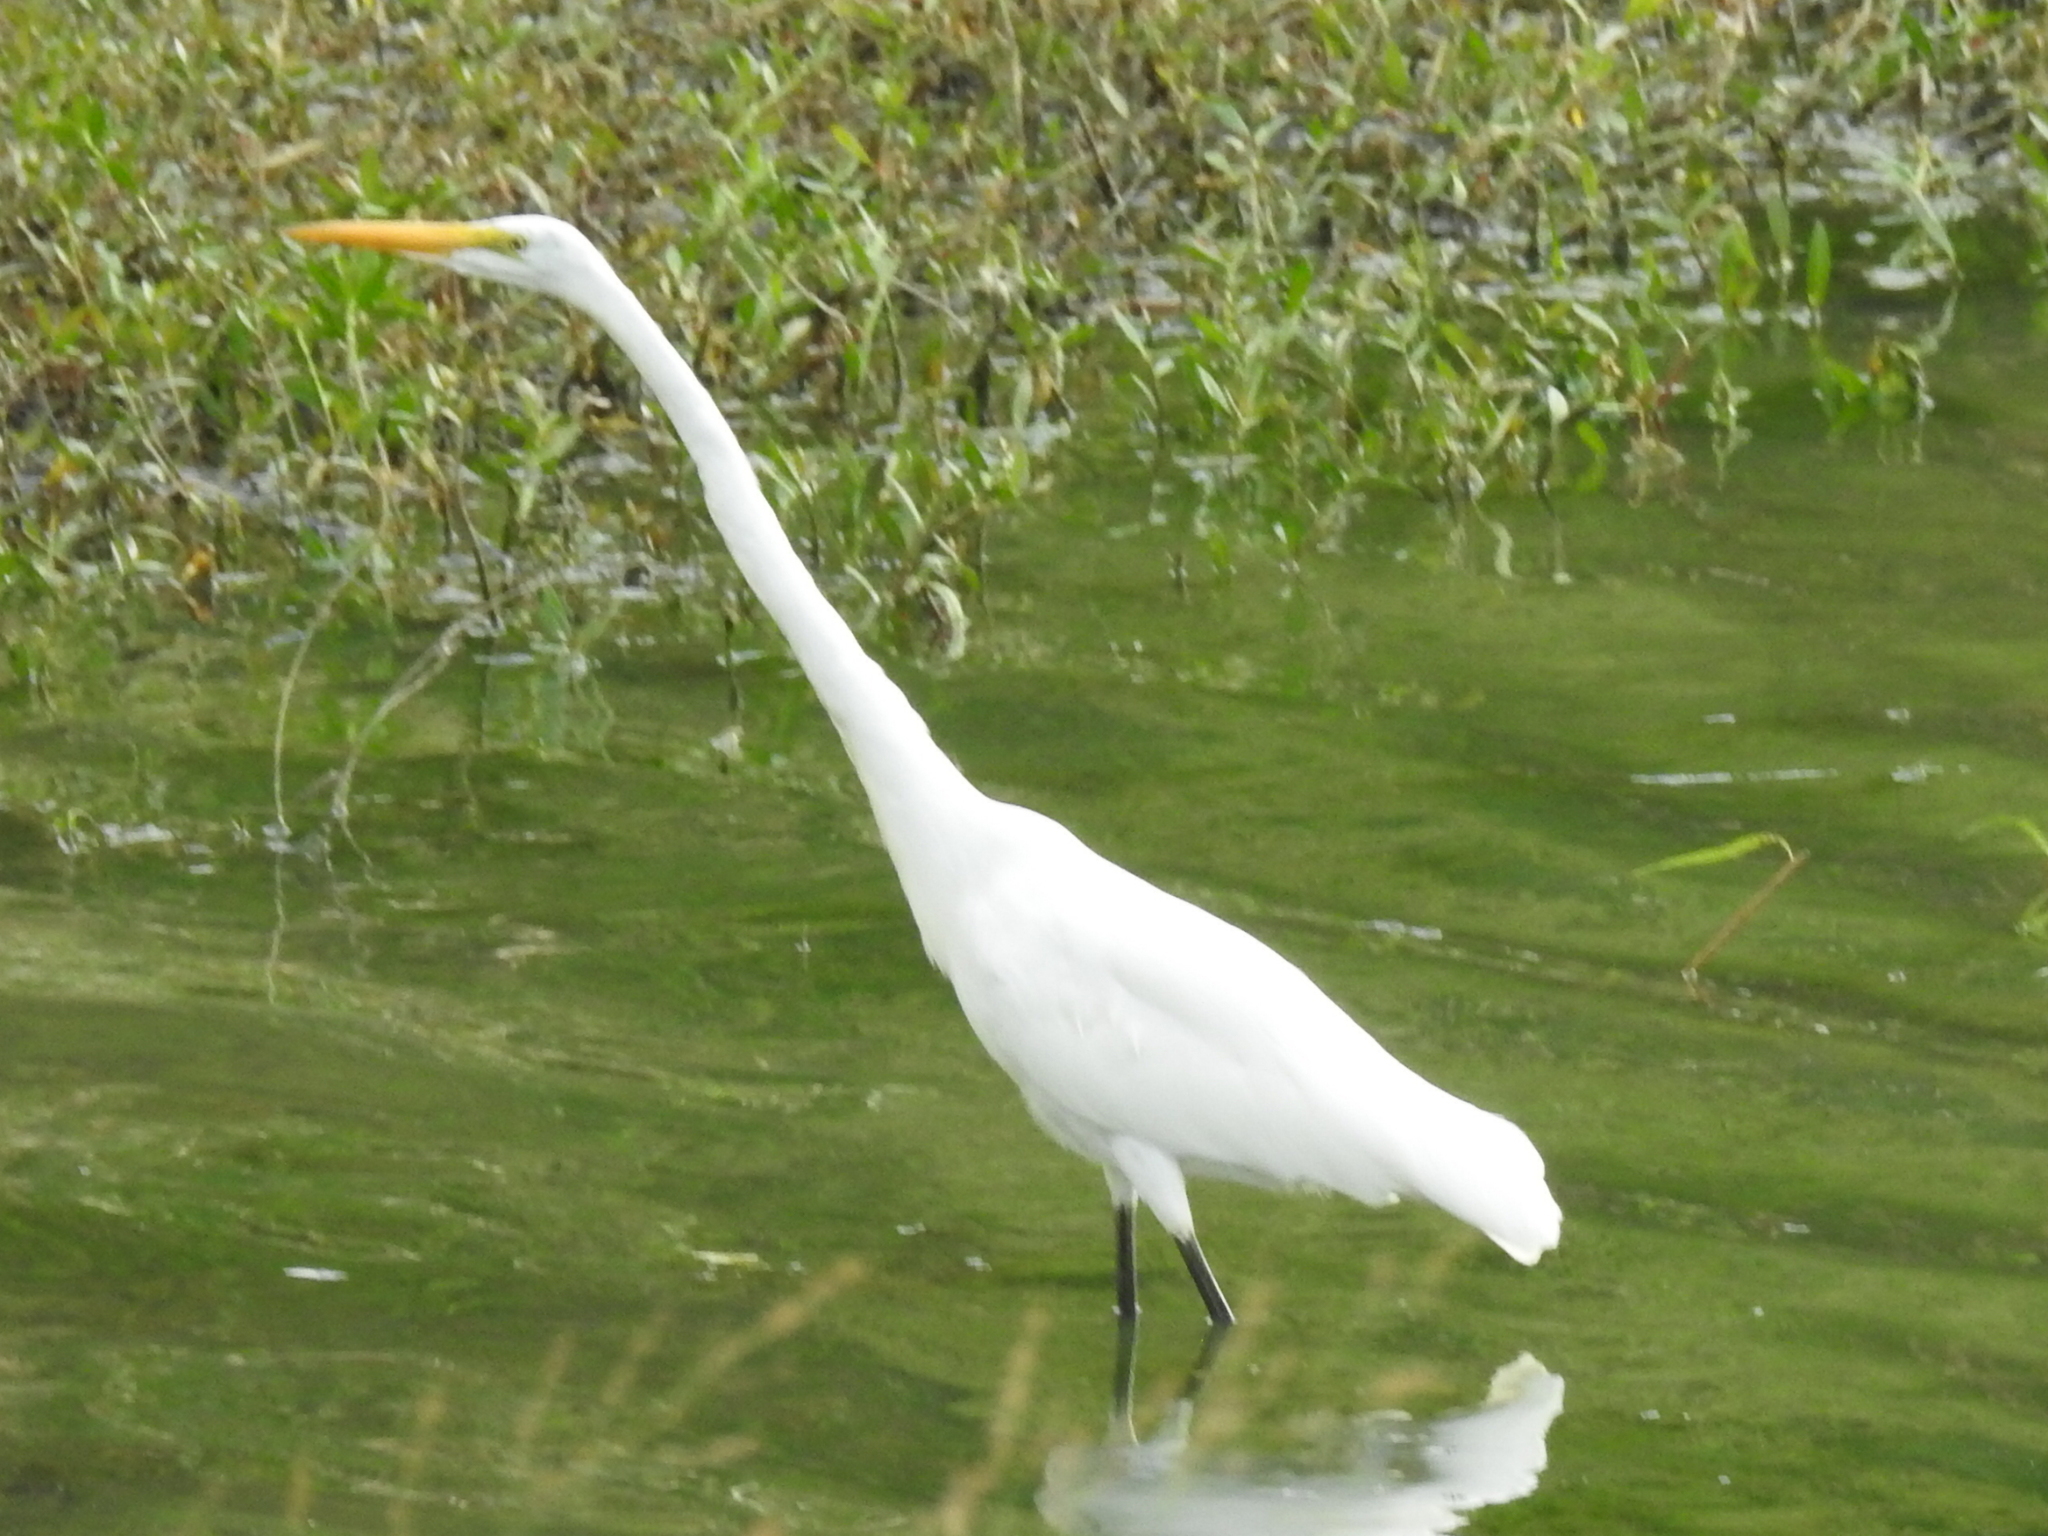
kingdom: Animalia
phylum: Chordata
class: Aves
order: Pelecaniformes
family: Ardeidae
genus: Ardea
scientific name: Ardea alba
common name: Great egret
